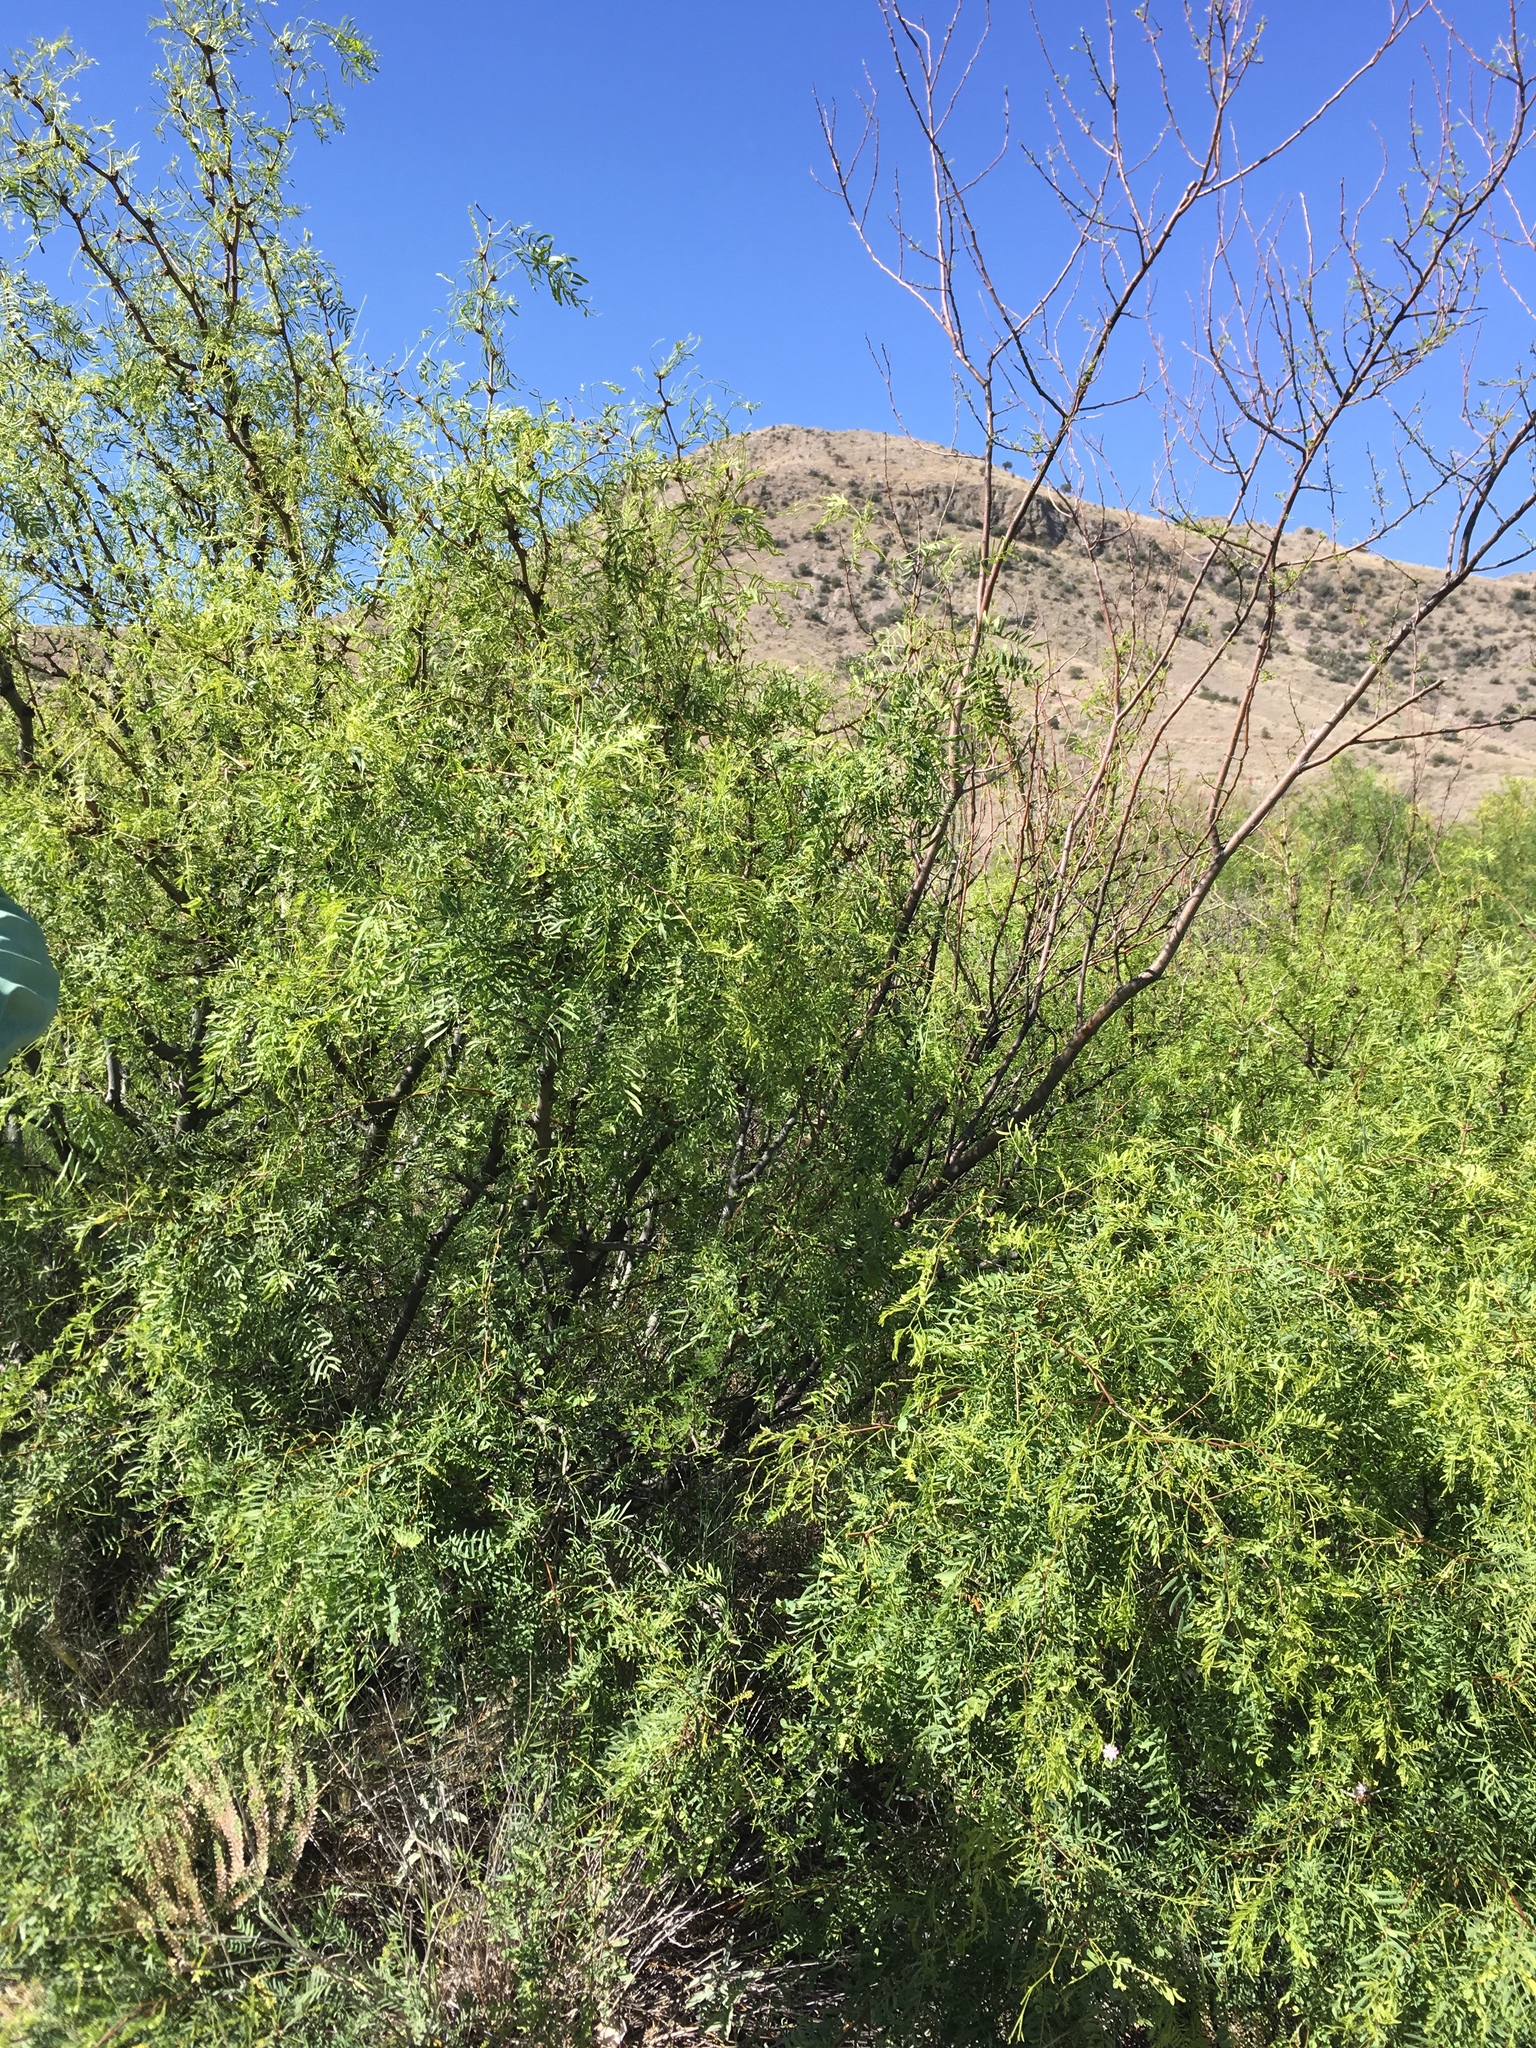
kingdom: Plantae
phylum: Tracheophyta
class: Magnoliopsida
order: Fabales
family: Fabaceae
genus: Prosopis
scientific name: Prosopis glandulosa
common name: Honey mesquite
